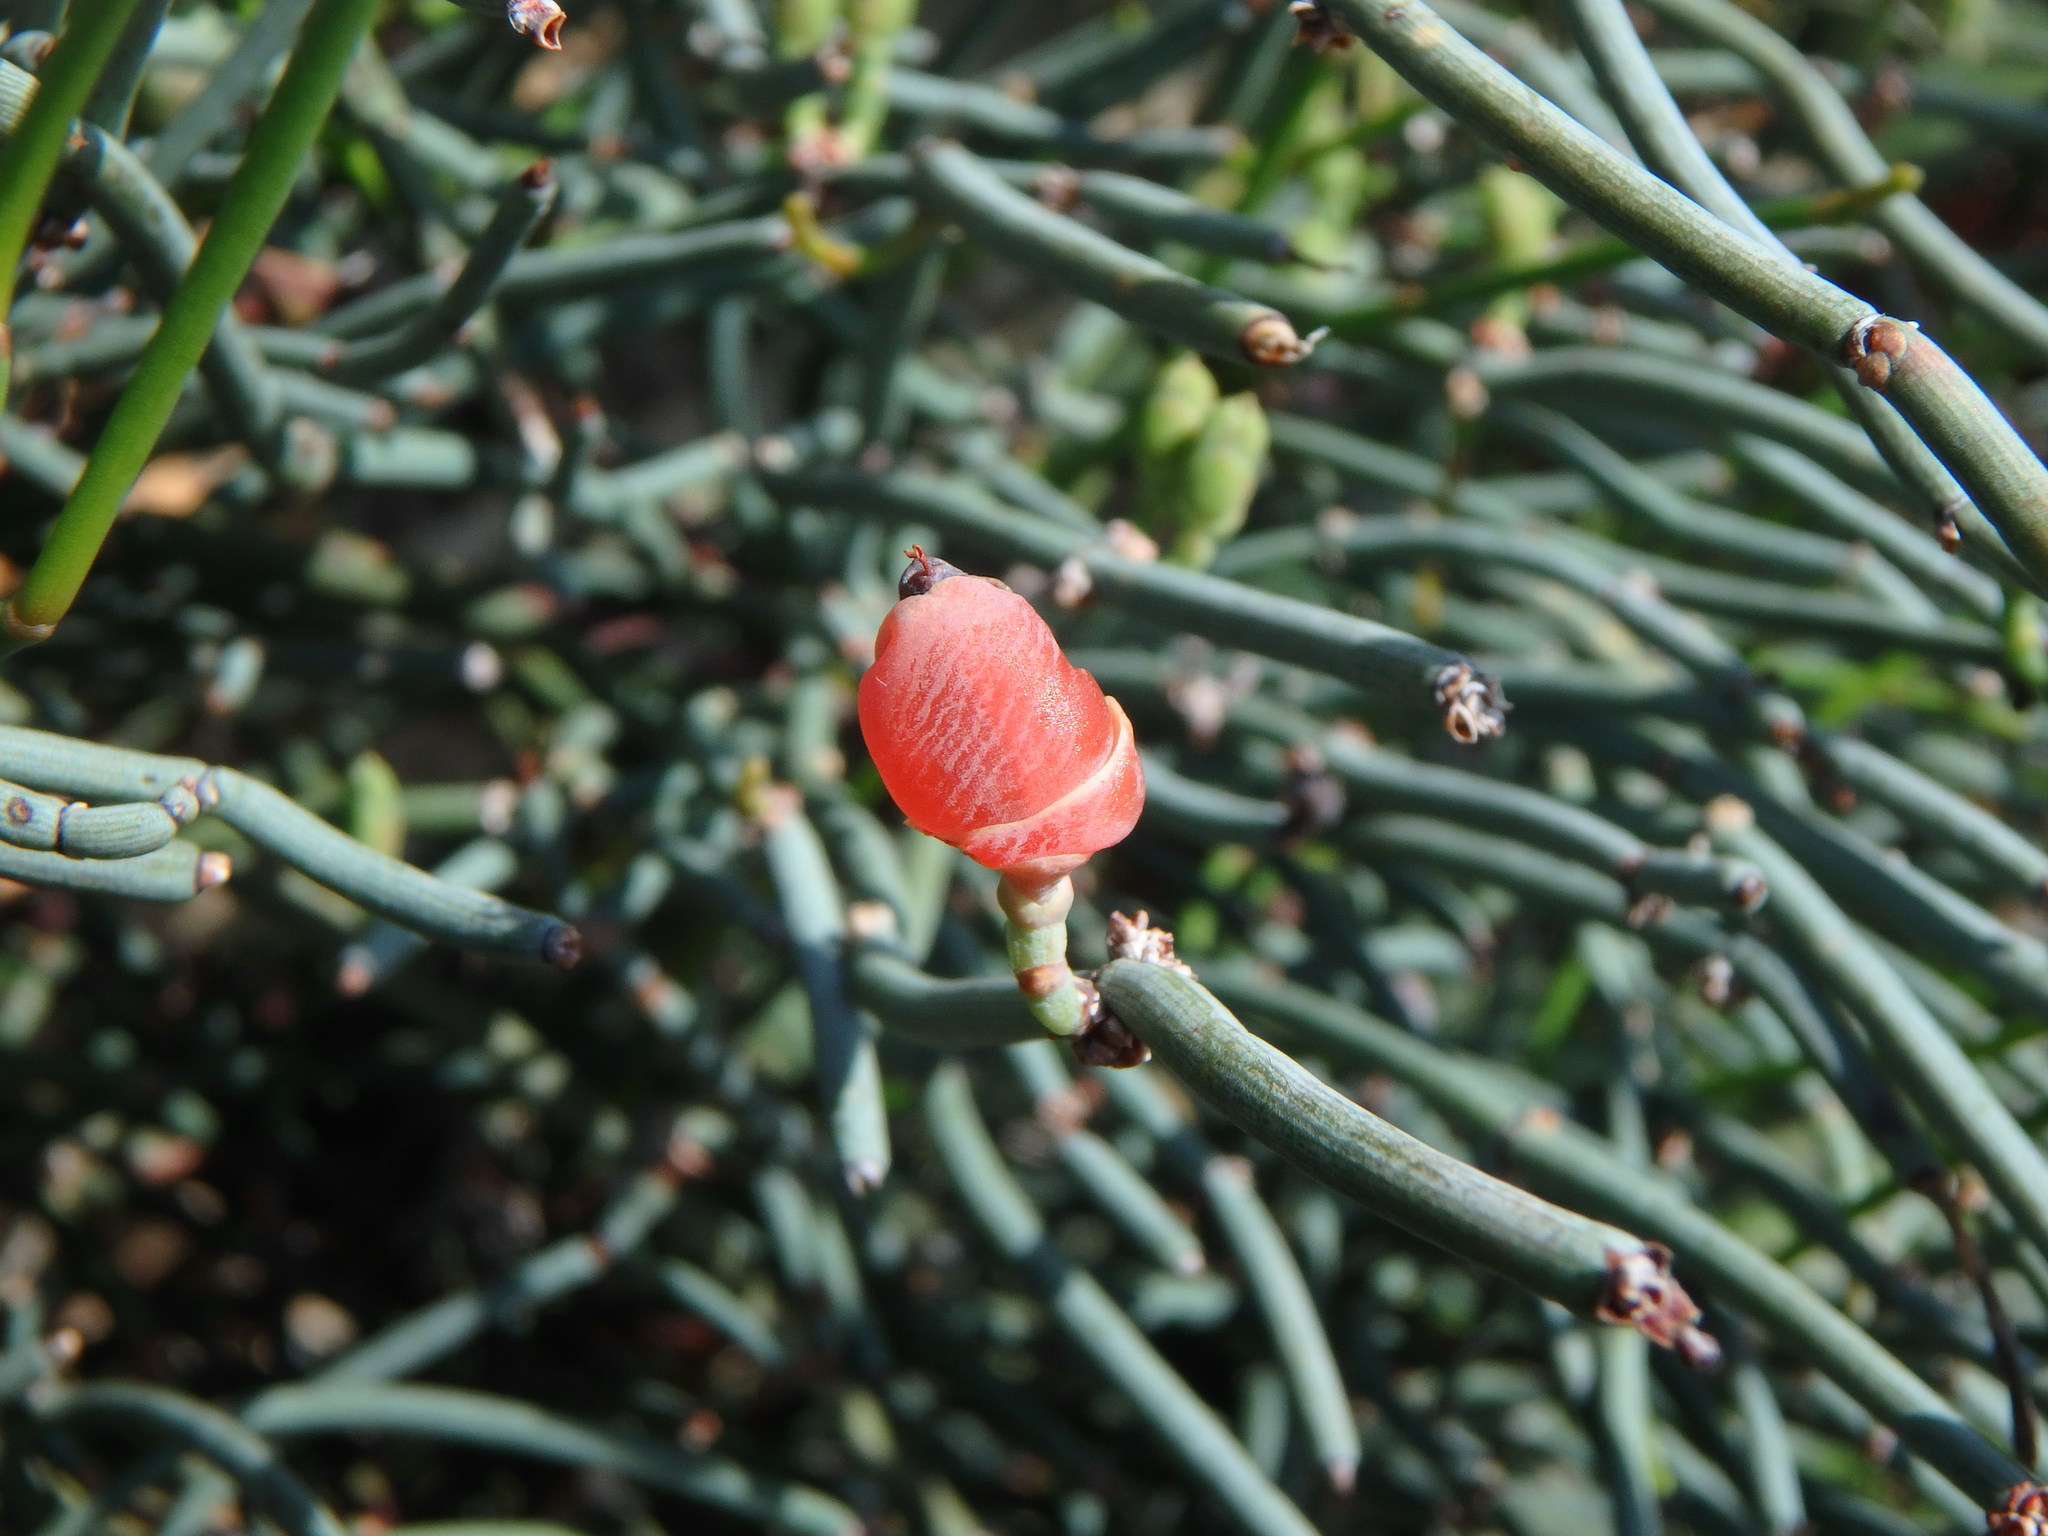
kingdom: Plantae
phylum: Tracheophyta
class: Gnetopsida
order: Ephedrales
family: Ephedraceae
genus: Ephedra
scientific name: Ephedra foeminea
